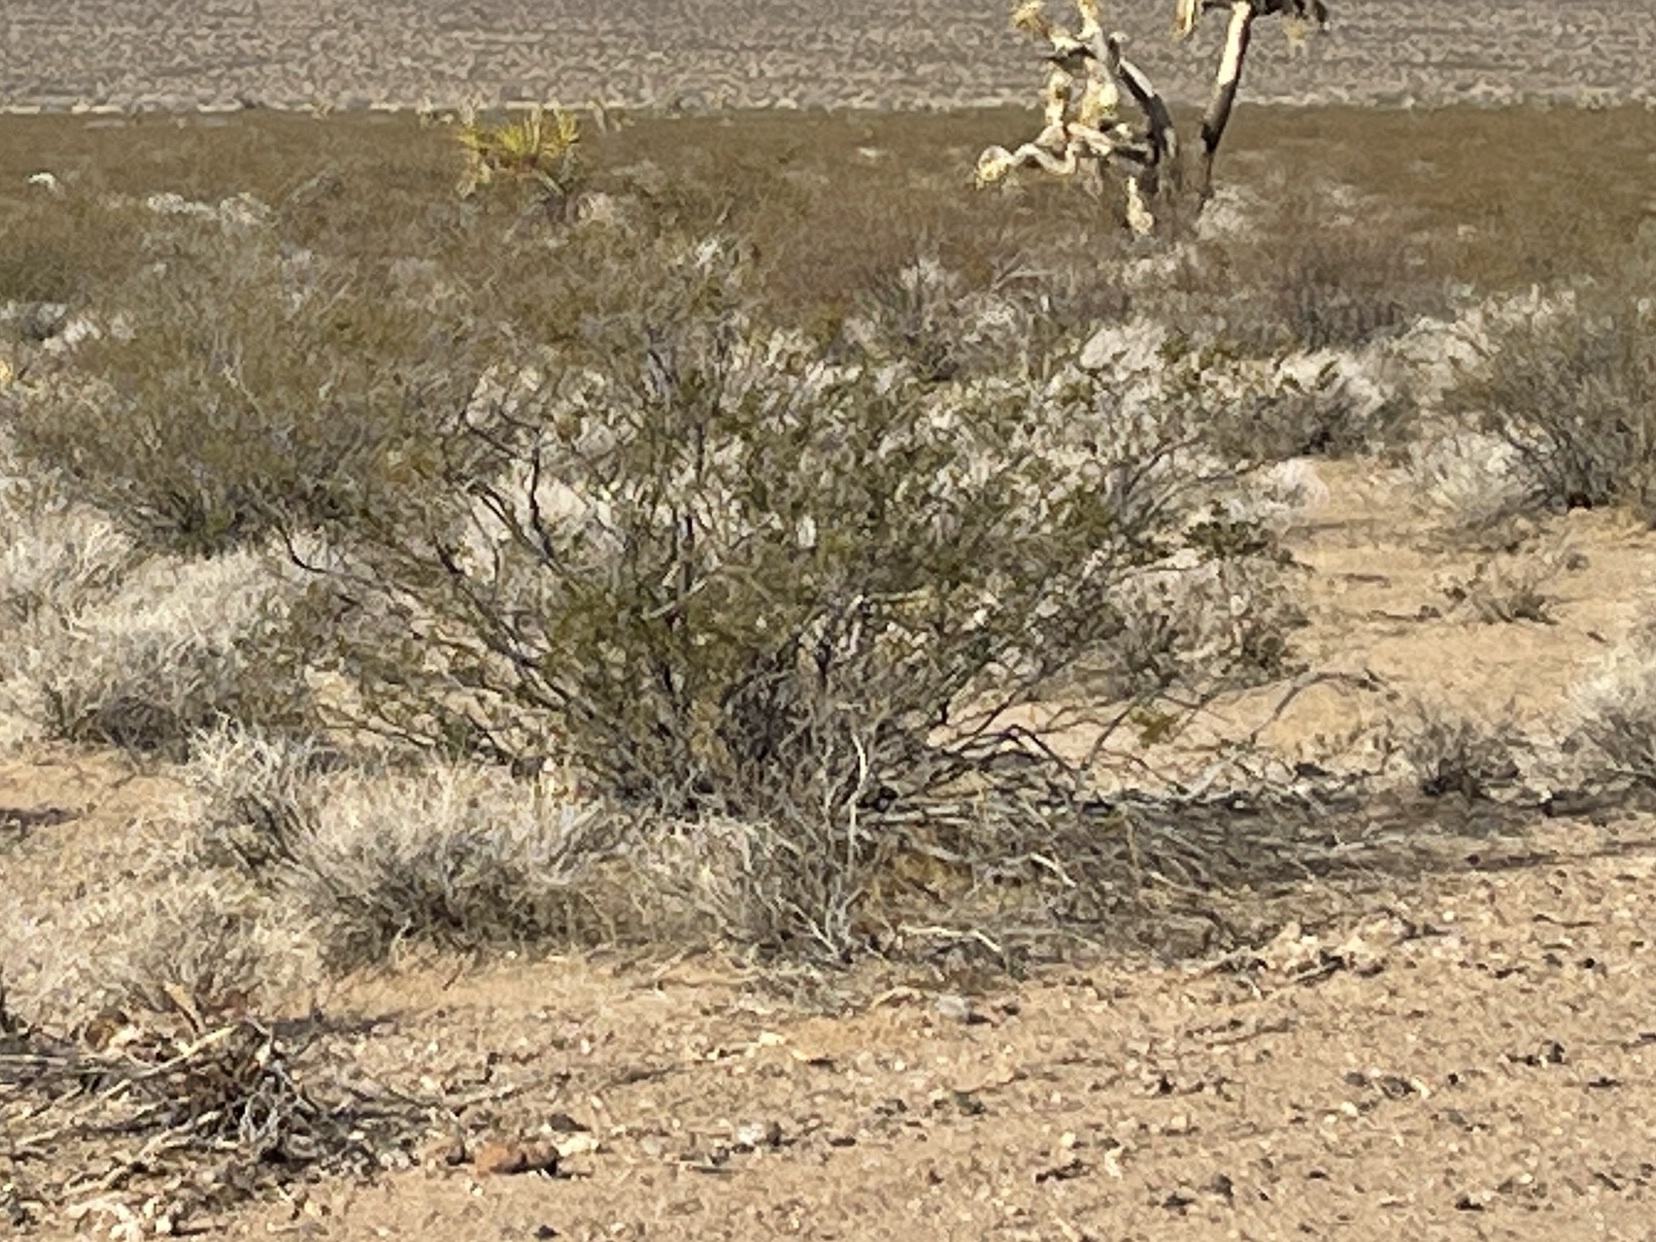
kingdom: Plantae
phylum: Tracheophyta
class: Magnoliopsida
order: Zygophyllales
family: Zygophyllaceae
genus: Larrea
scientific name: Larrea tridentata
